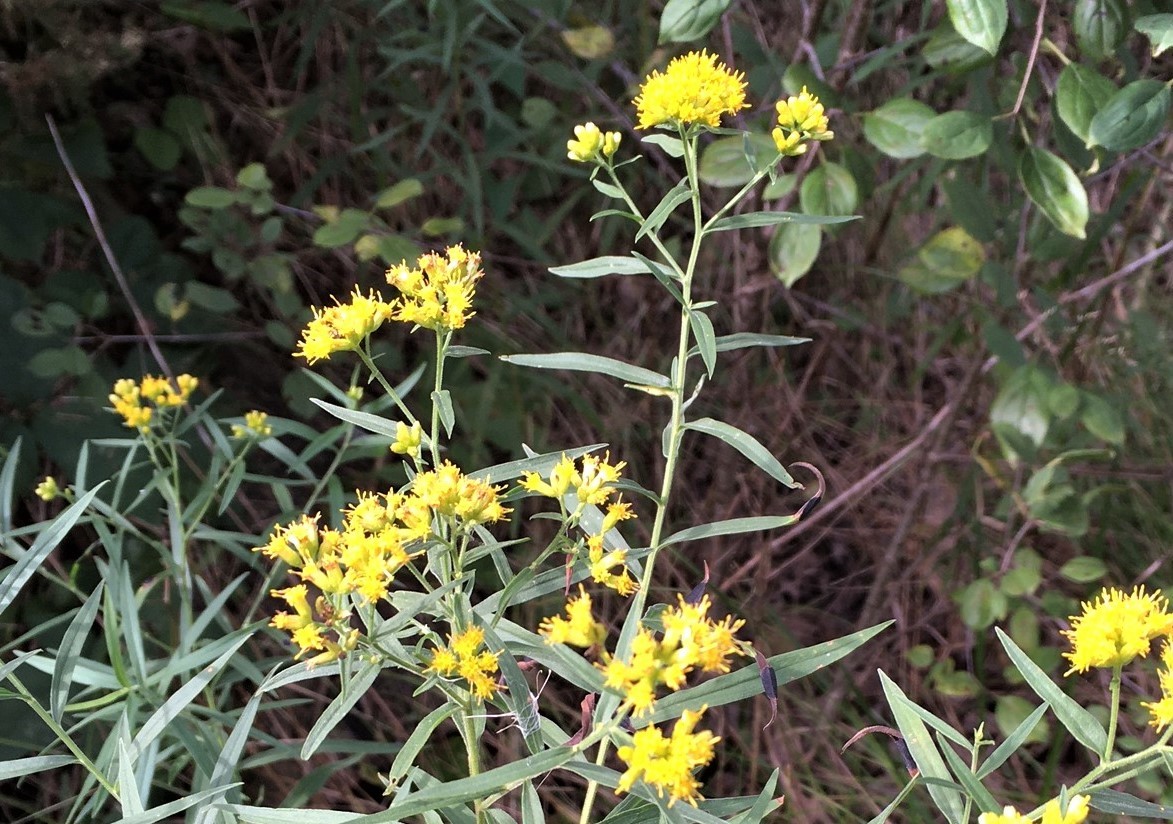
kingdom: Plantae
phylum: Tracheophyta
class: Magnoliopsida
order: Asterales
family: Asteraceae
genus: Euthamia
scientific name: Euthamia graminifolia
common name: Common goldentop
